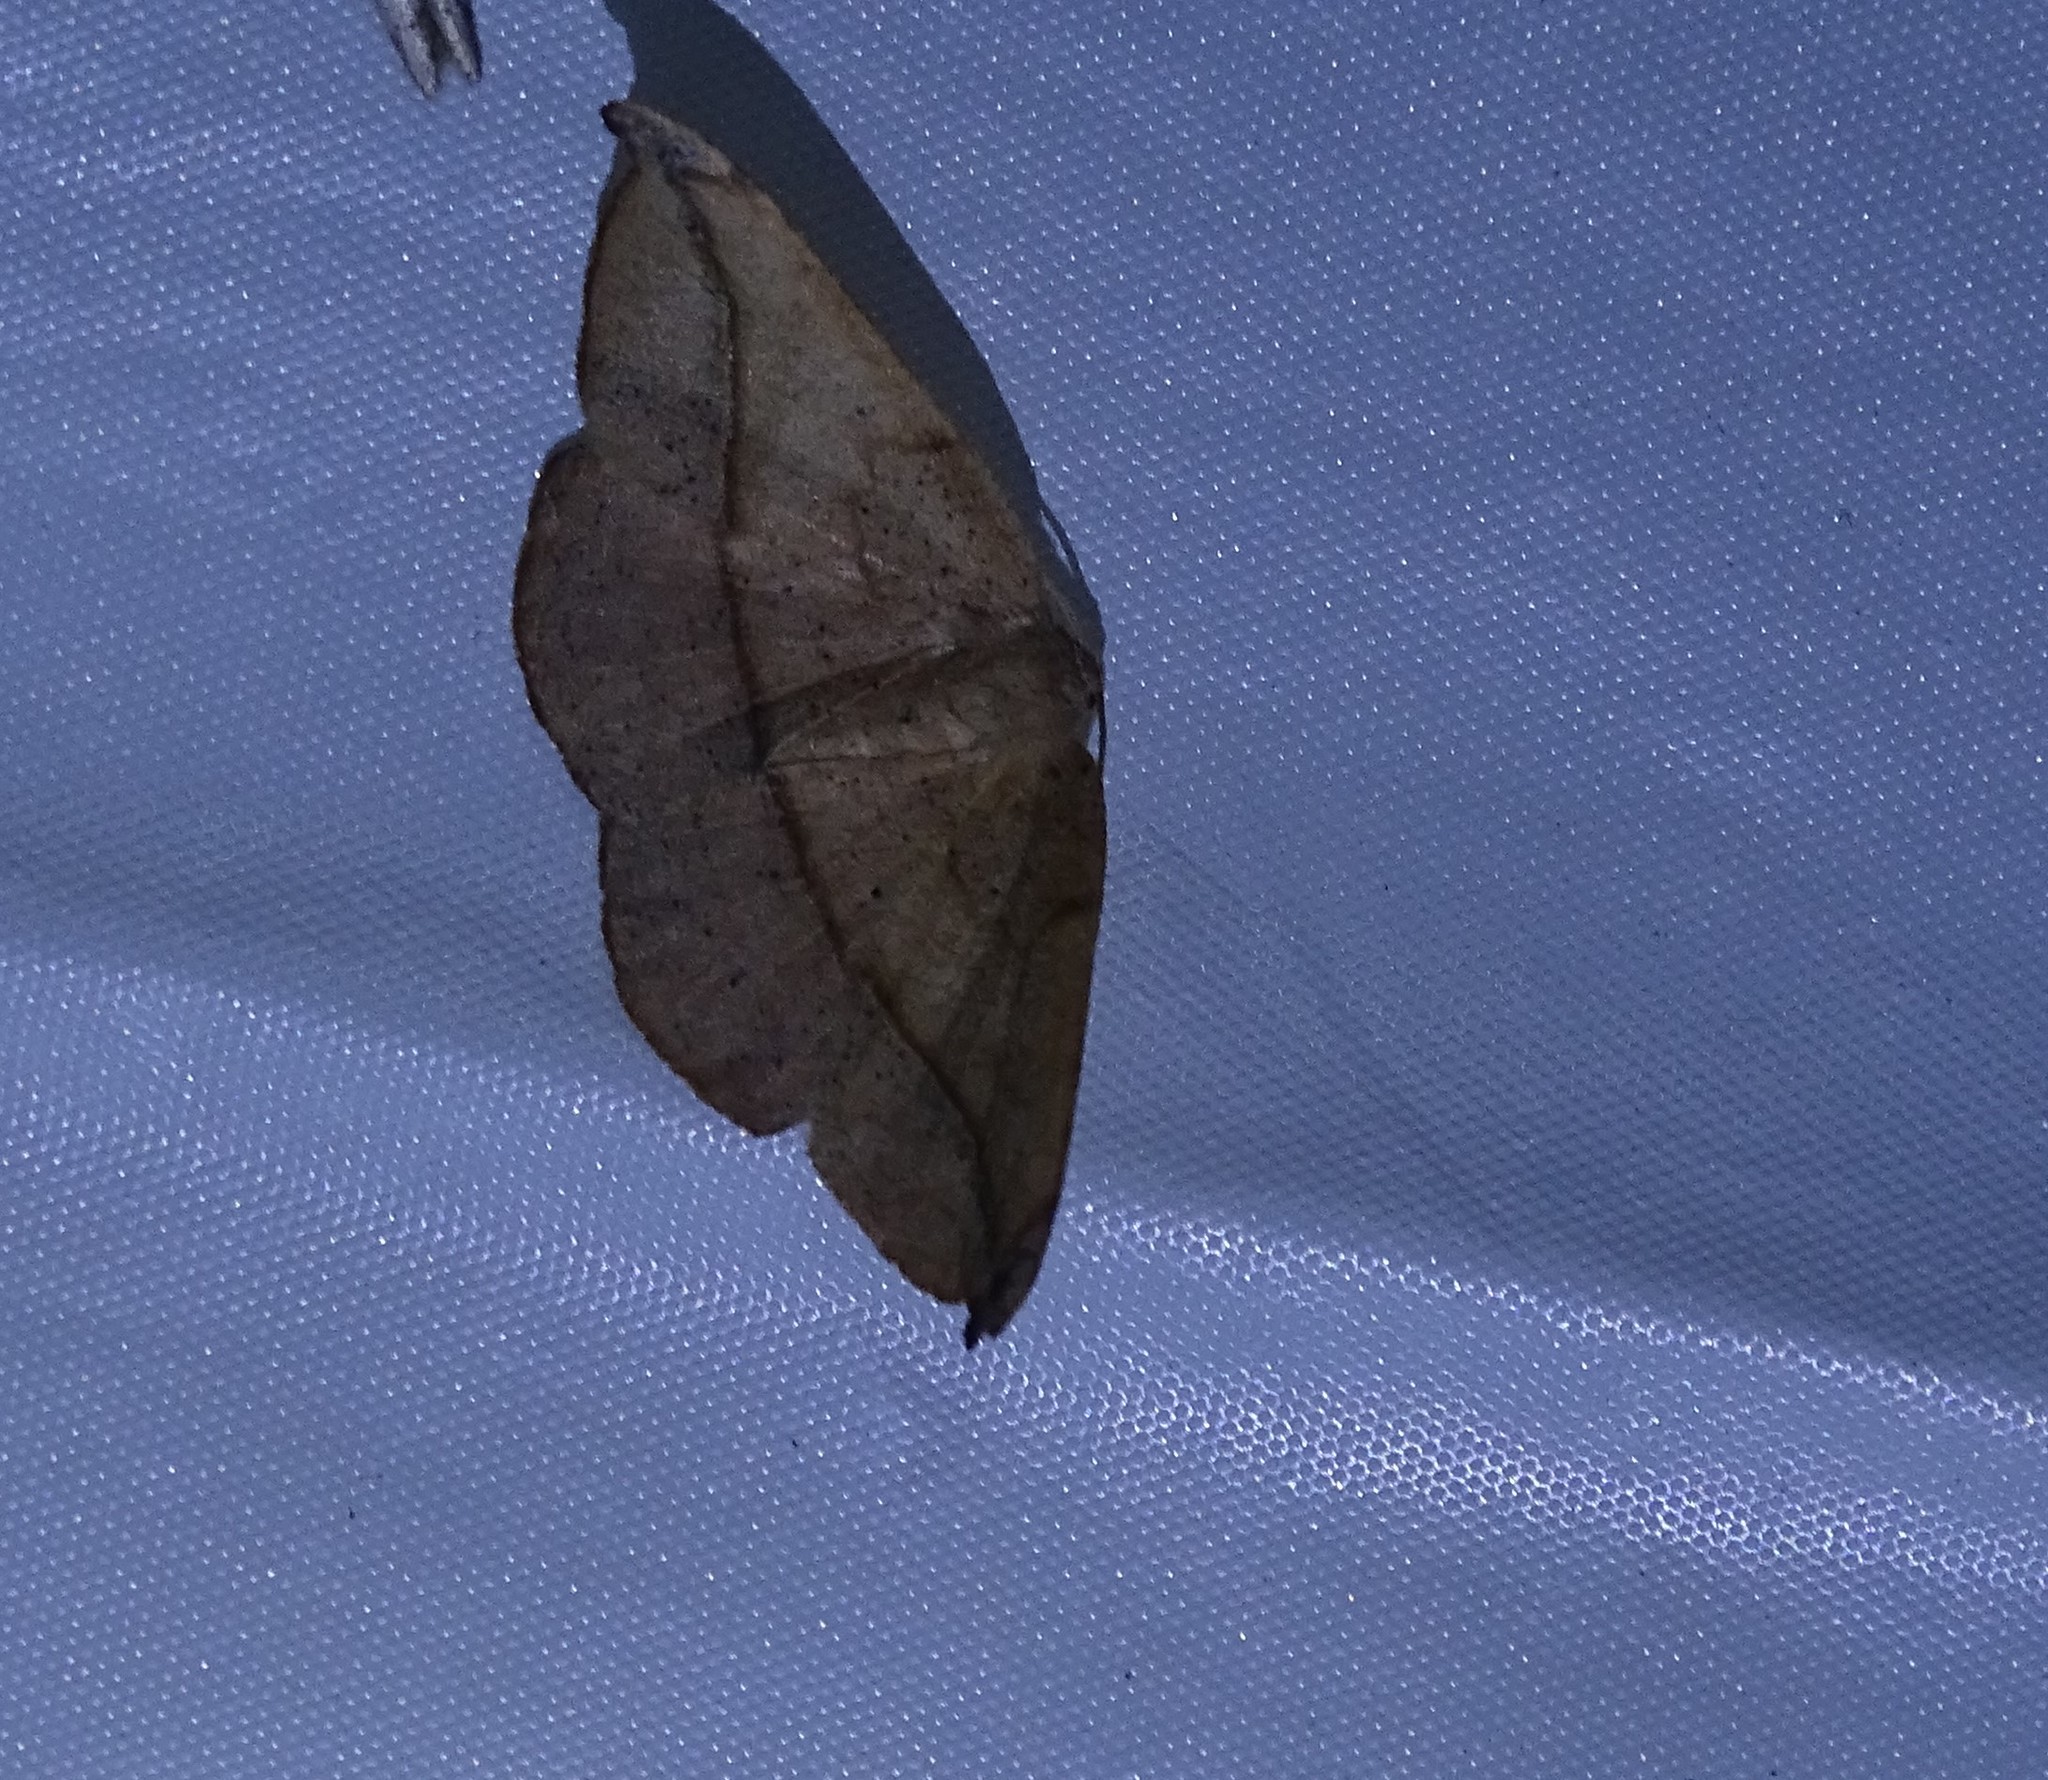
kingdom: Animalia
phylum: Arthropoda
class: Insecta
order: Lepidoptera
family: Geometridae
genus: Patalene
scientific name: Patalene olyzonaria
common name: Juniper geometer moth
